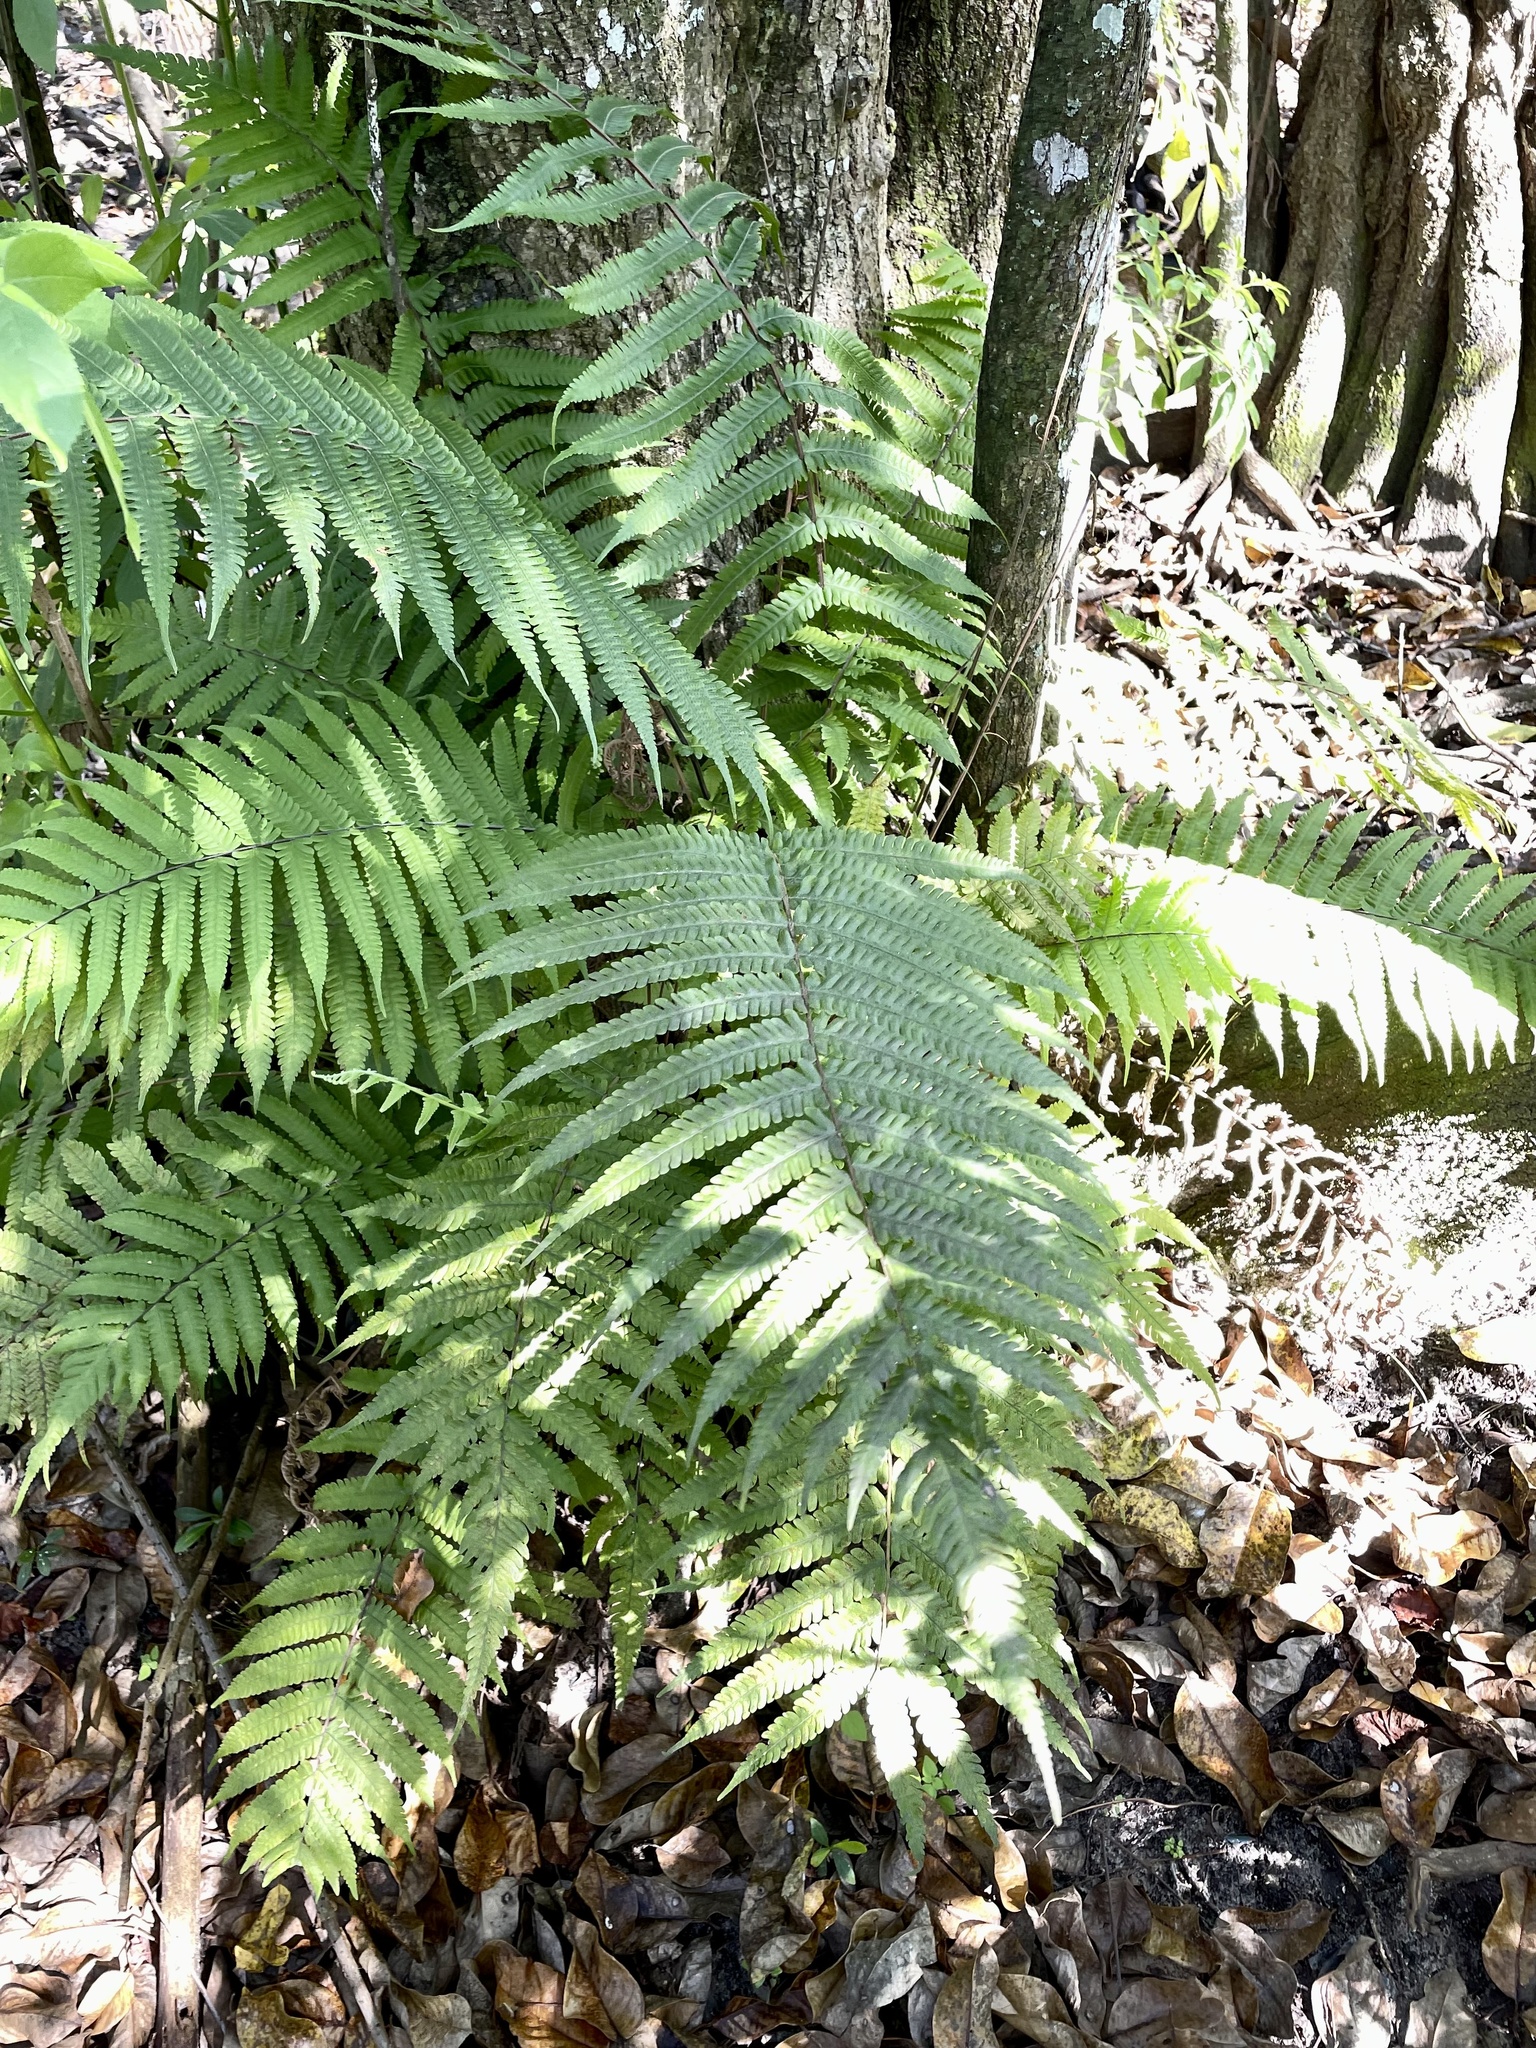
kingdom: Plantae
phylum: Tracheophyta
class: Polypodiopsida
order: Polypodiales
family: Thelypteridaceae
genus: Christella
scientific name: Christella dentata
